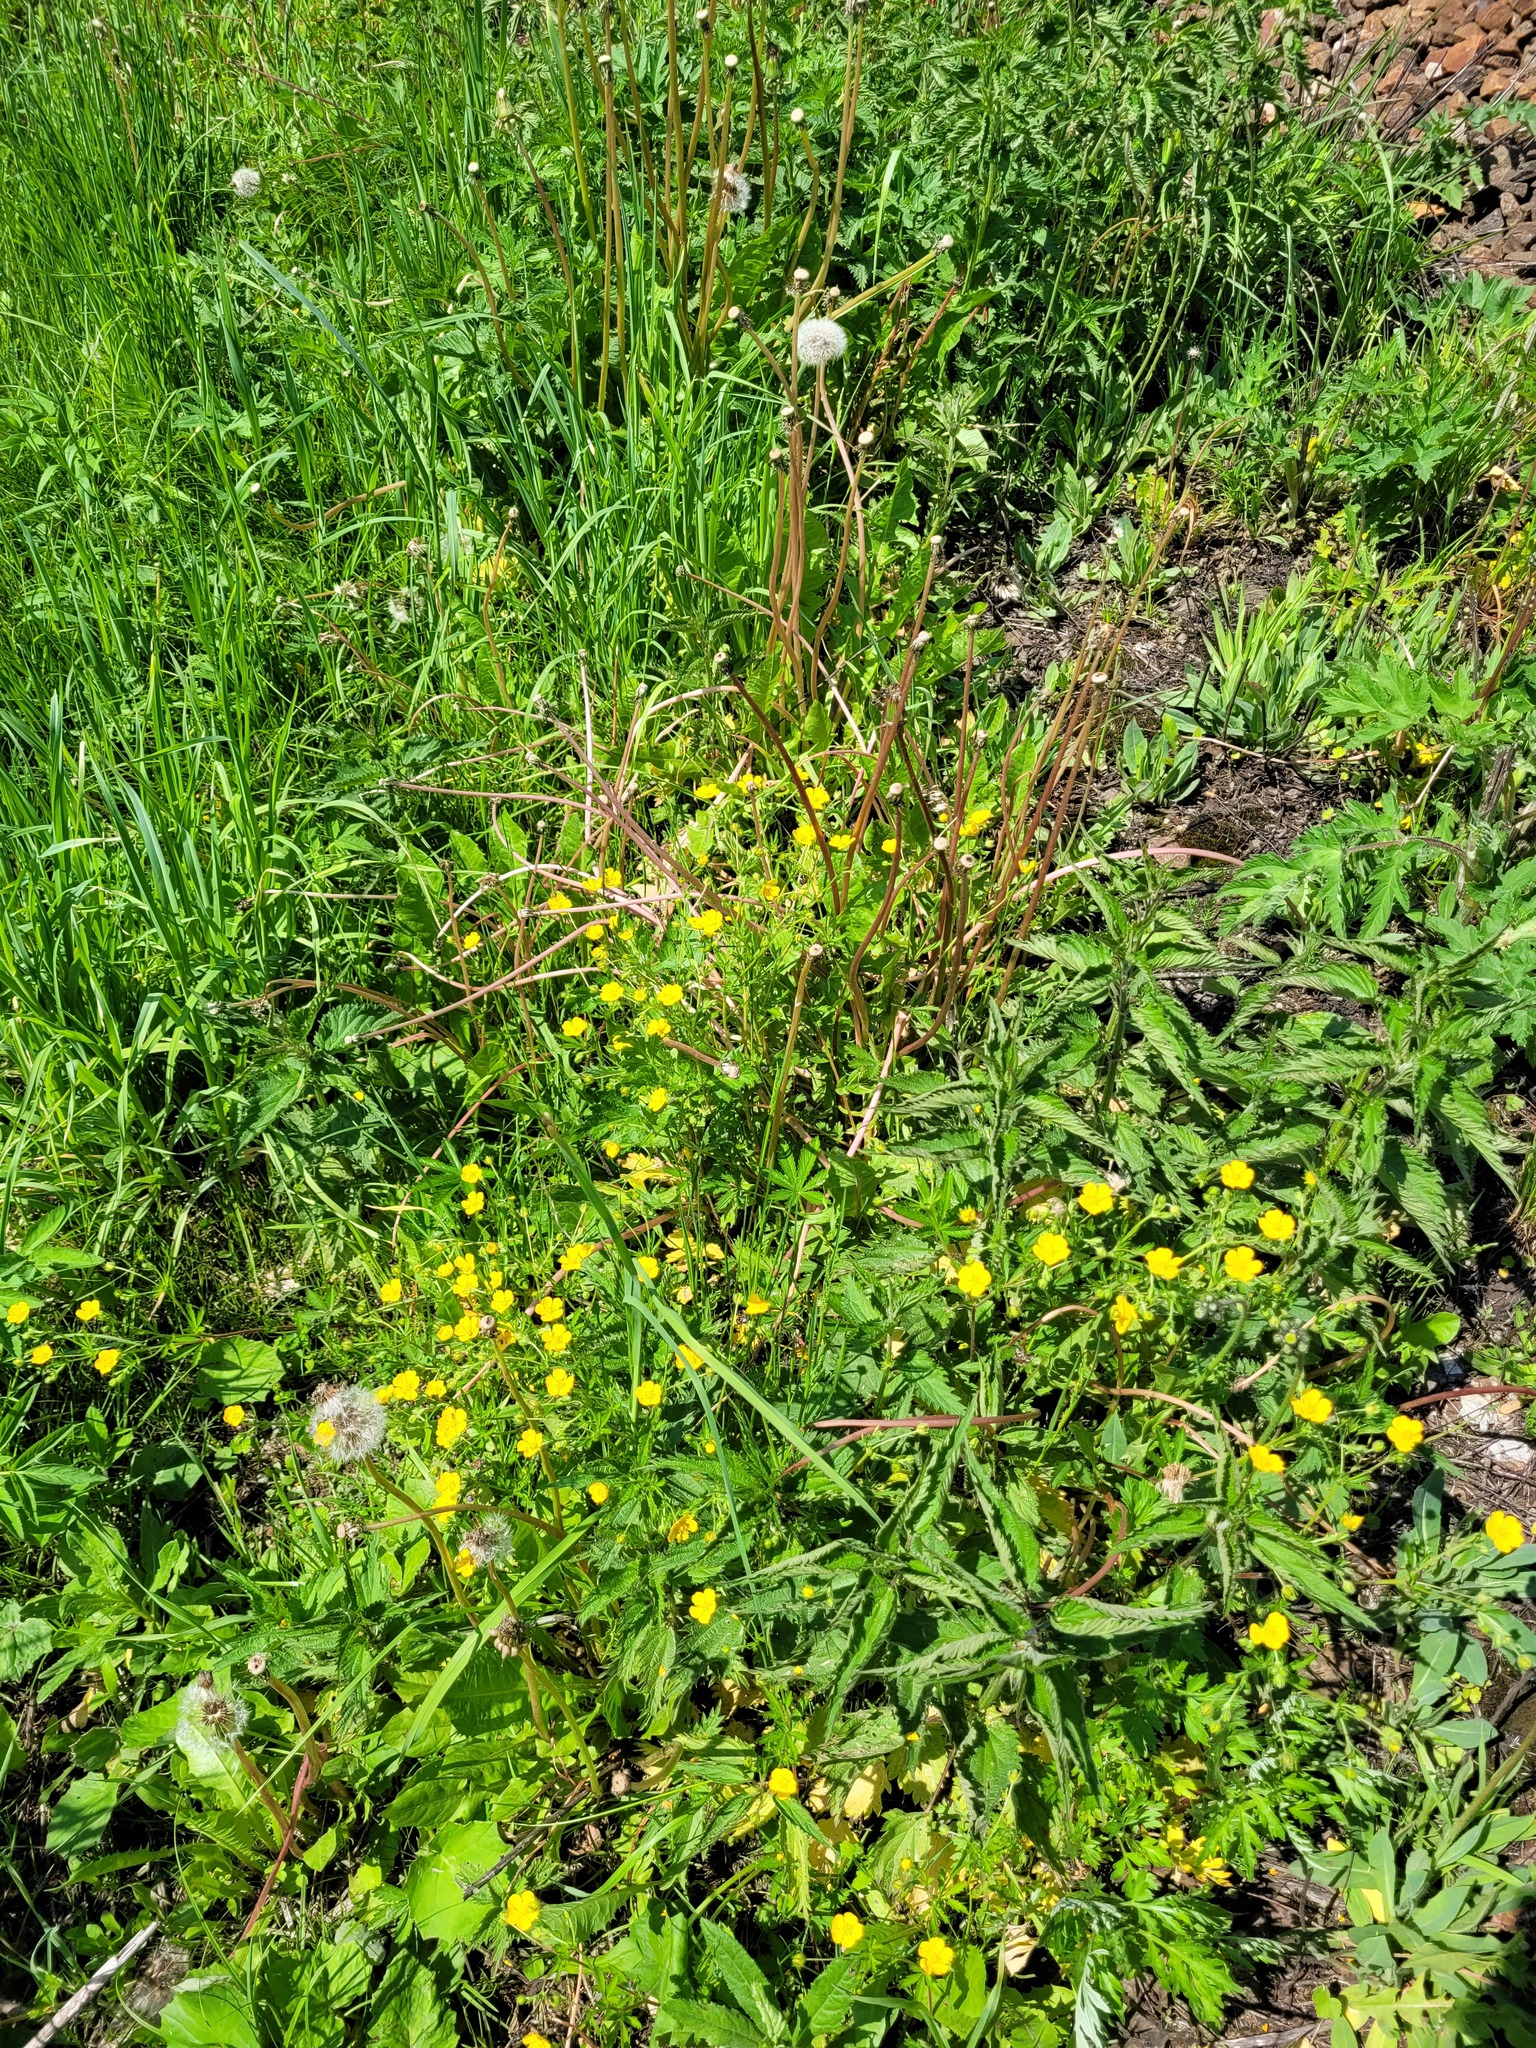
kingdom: Plantae
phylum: Tracheophyta
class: Magnoliopsida
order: Rosales
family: Rosaceae
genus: Potentilla
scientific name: Potentilla thuringiaca
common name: European cinquefoil
